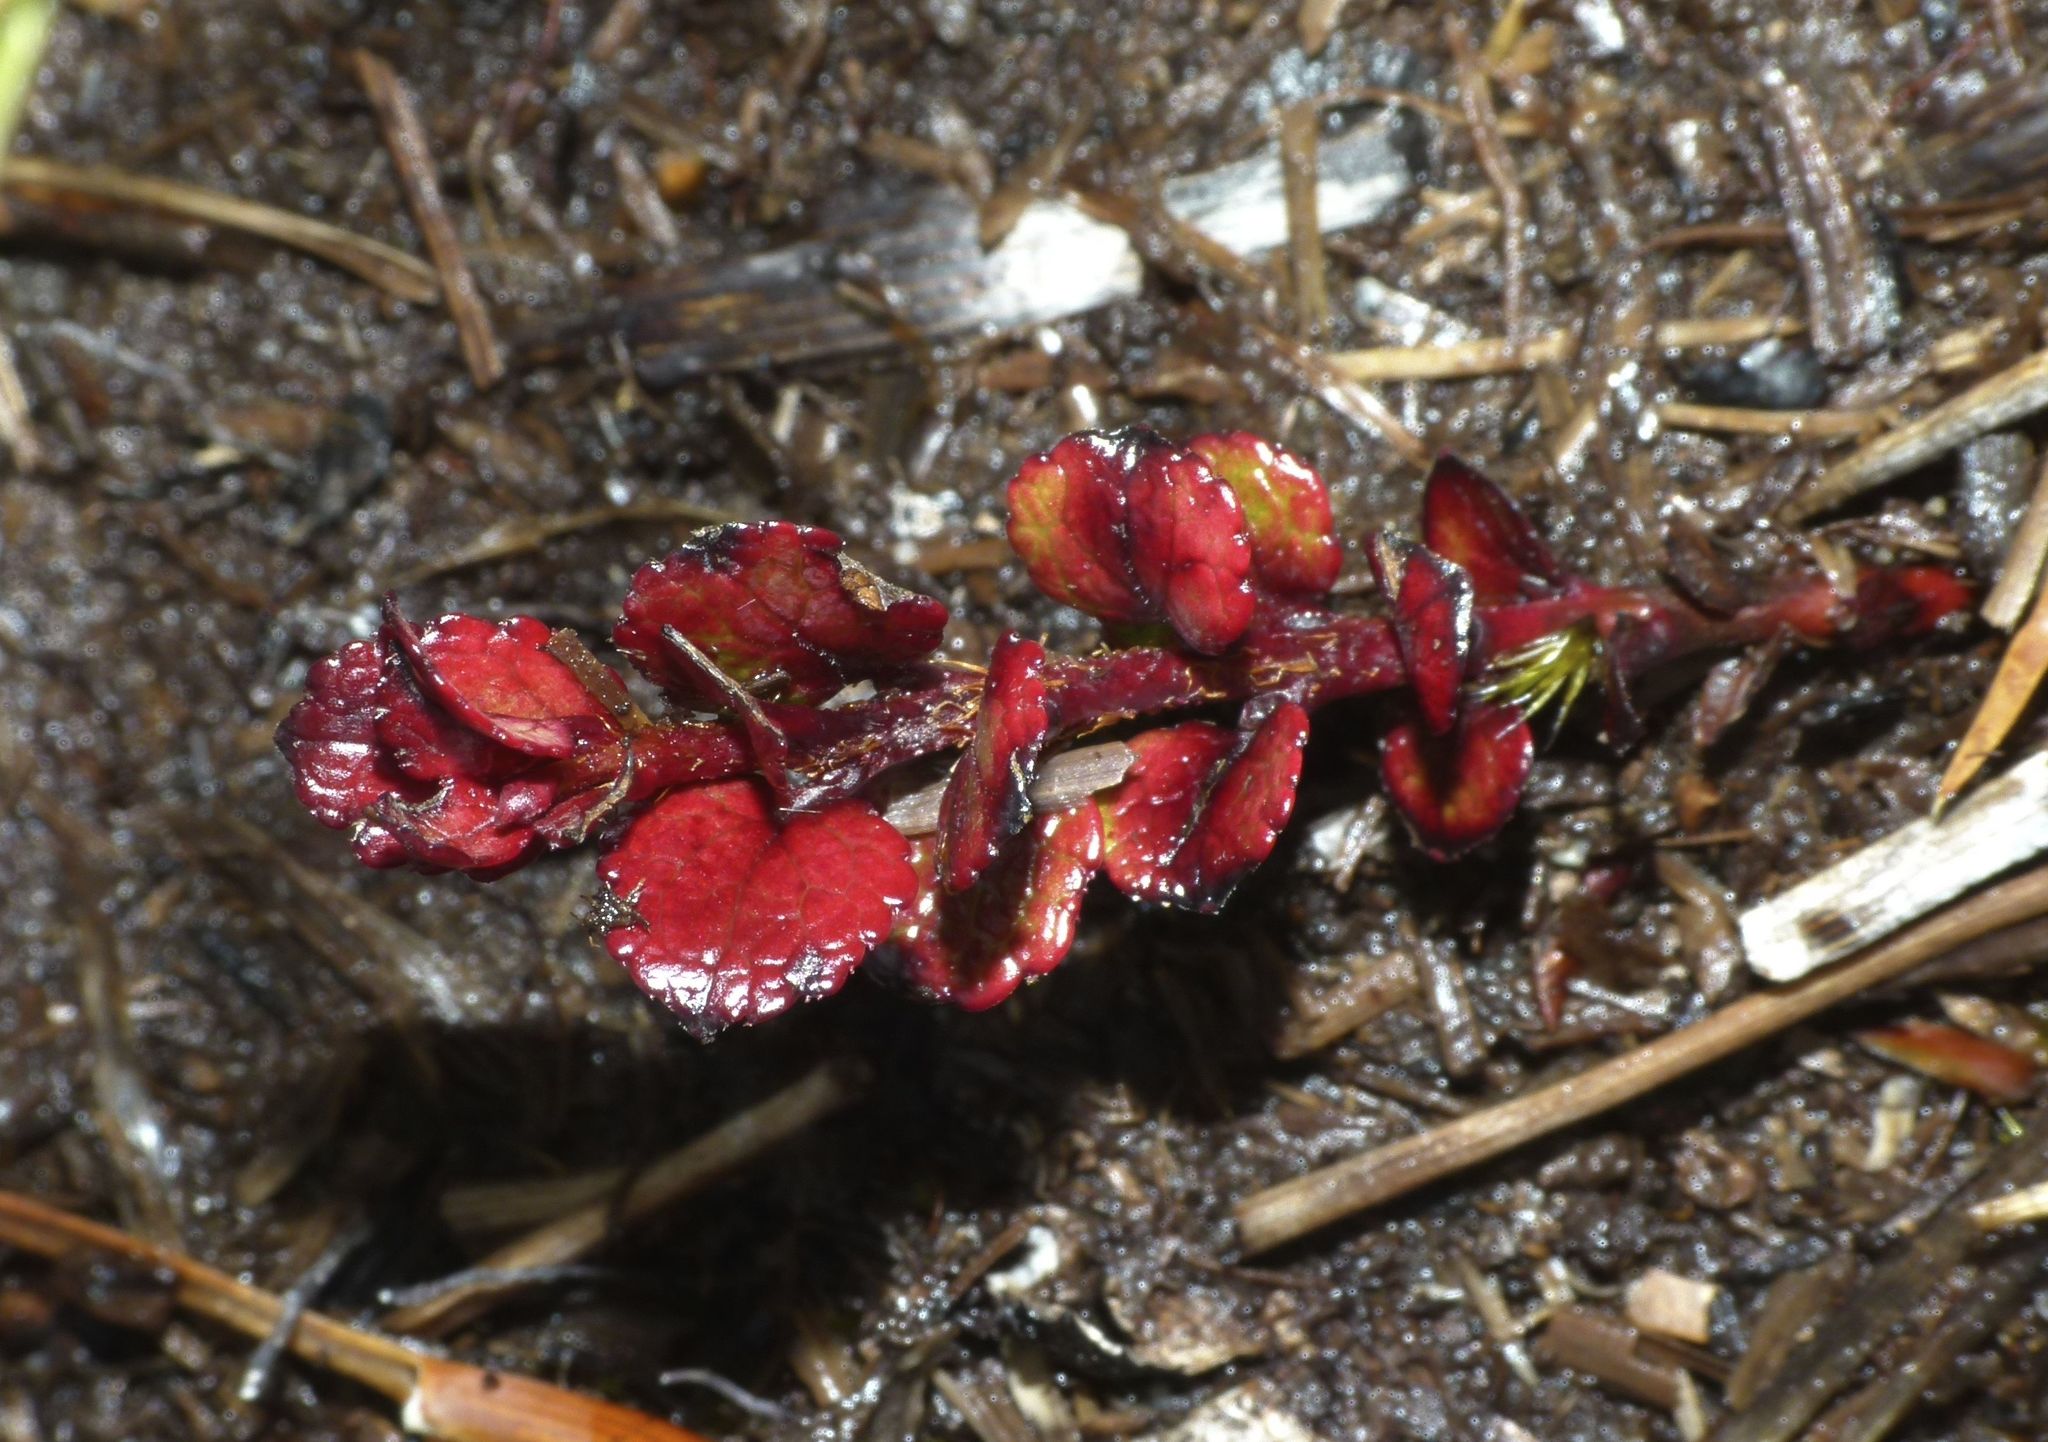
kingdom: Plantae
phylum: Tracheophyta
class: Magnoliopsida
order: Ericales
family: Ericaceae
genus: Gaultheria
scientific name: Gaultheria depressa
